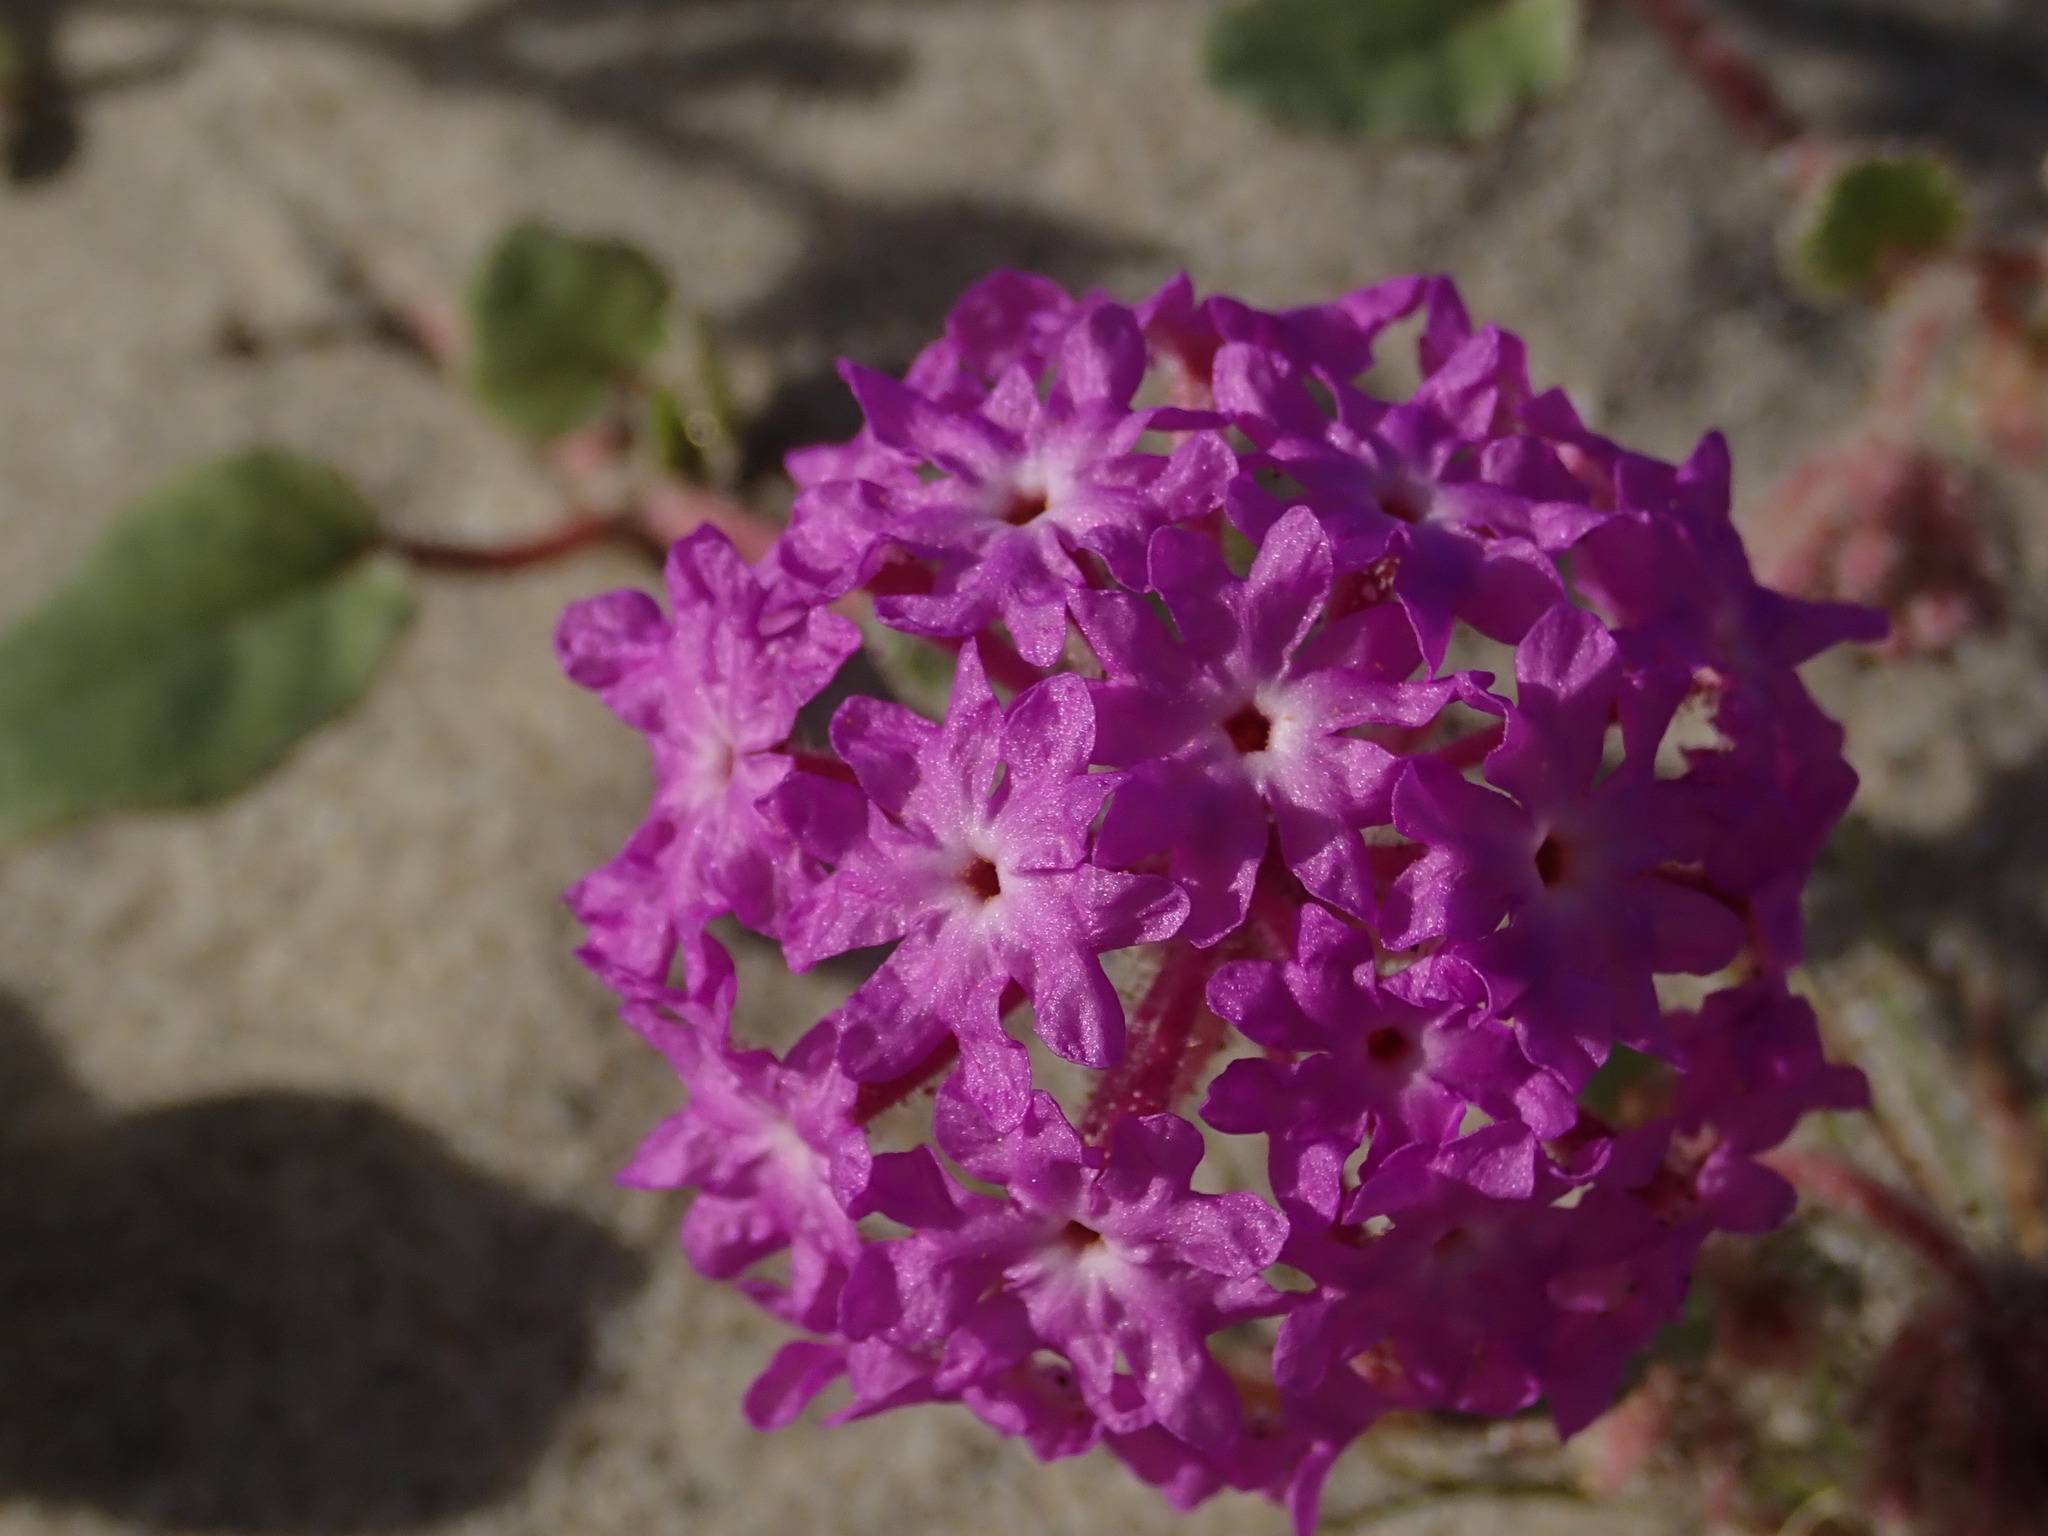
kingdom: Plantae
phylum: Tracheophyta
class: Magnoliopsida
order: Caryophyllales
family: Nyctaginaceae
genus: Abronia
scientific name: Abronia villosa
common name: Desert sand-verbena
